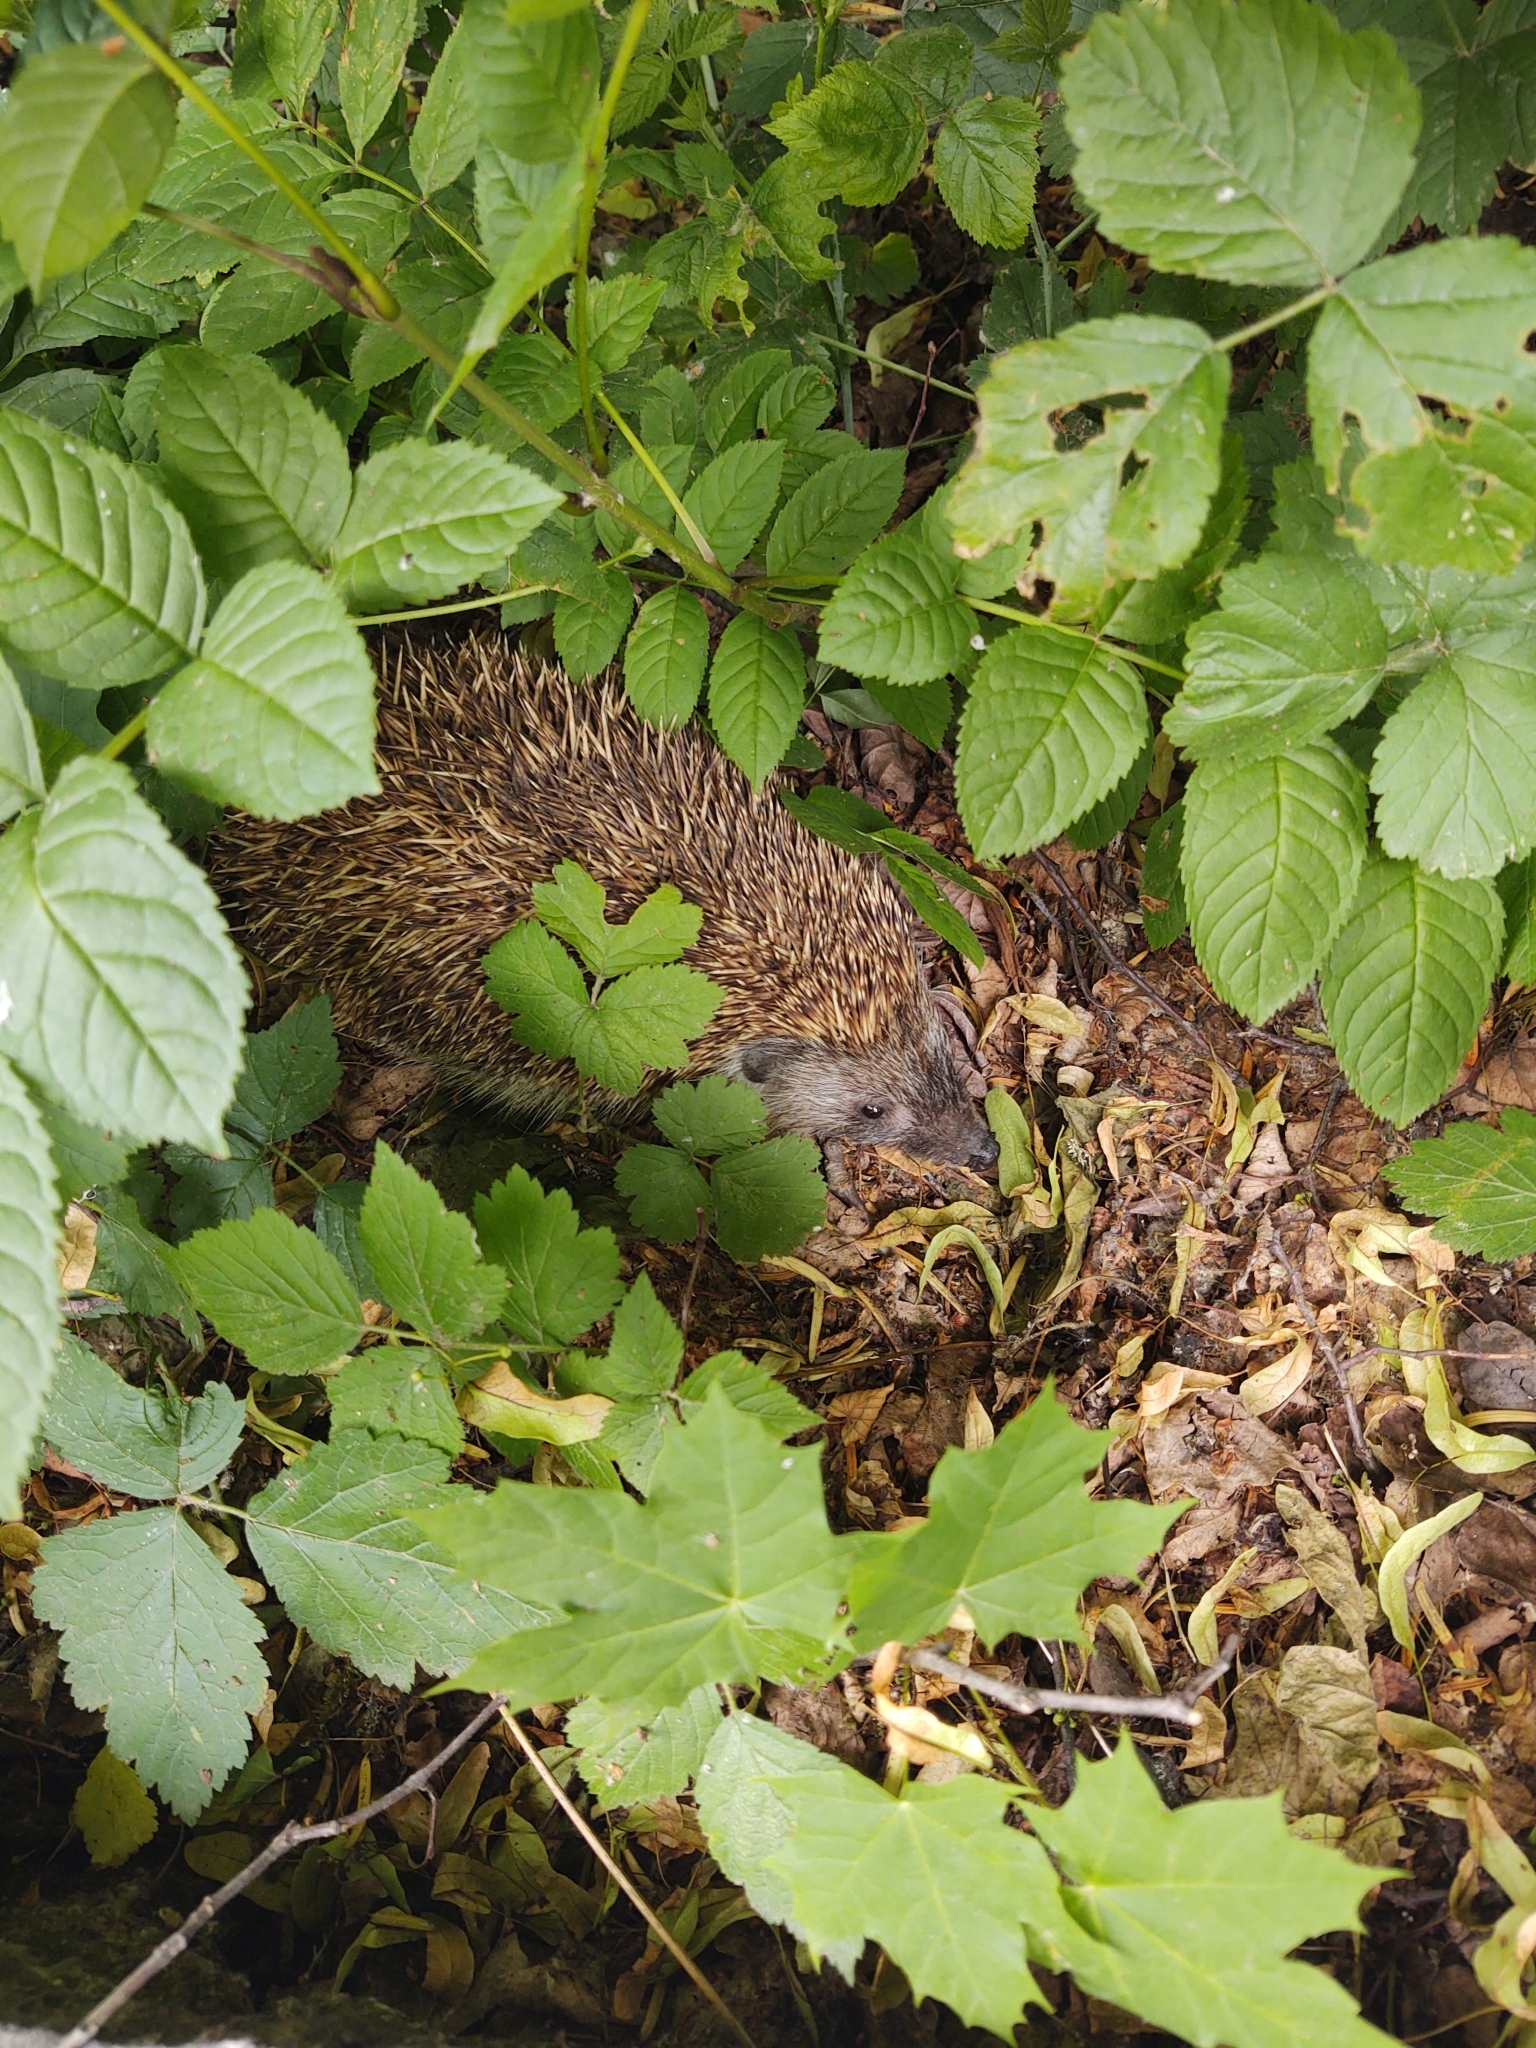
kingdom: Animalia
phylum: Chordata
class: Mammalia
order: Erinaceomorpha
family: Erinaceidae
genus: Erinaceus
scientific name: Erinaceus roumanicus
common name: Northern white-breasted hedgehog
